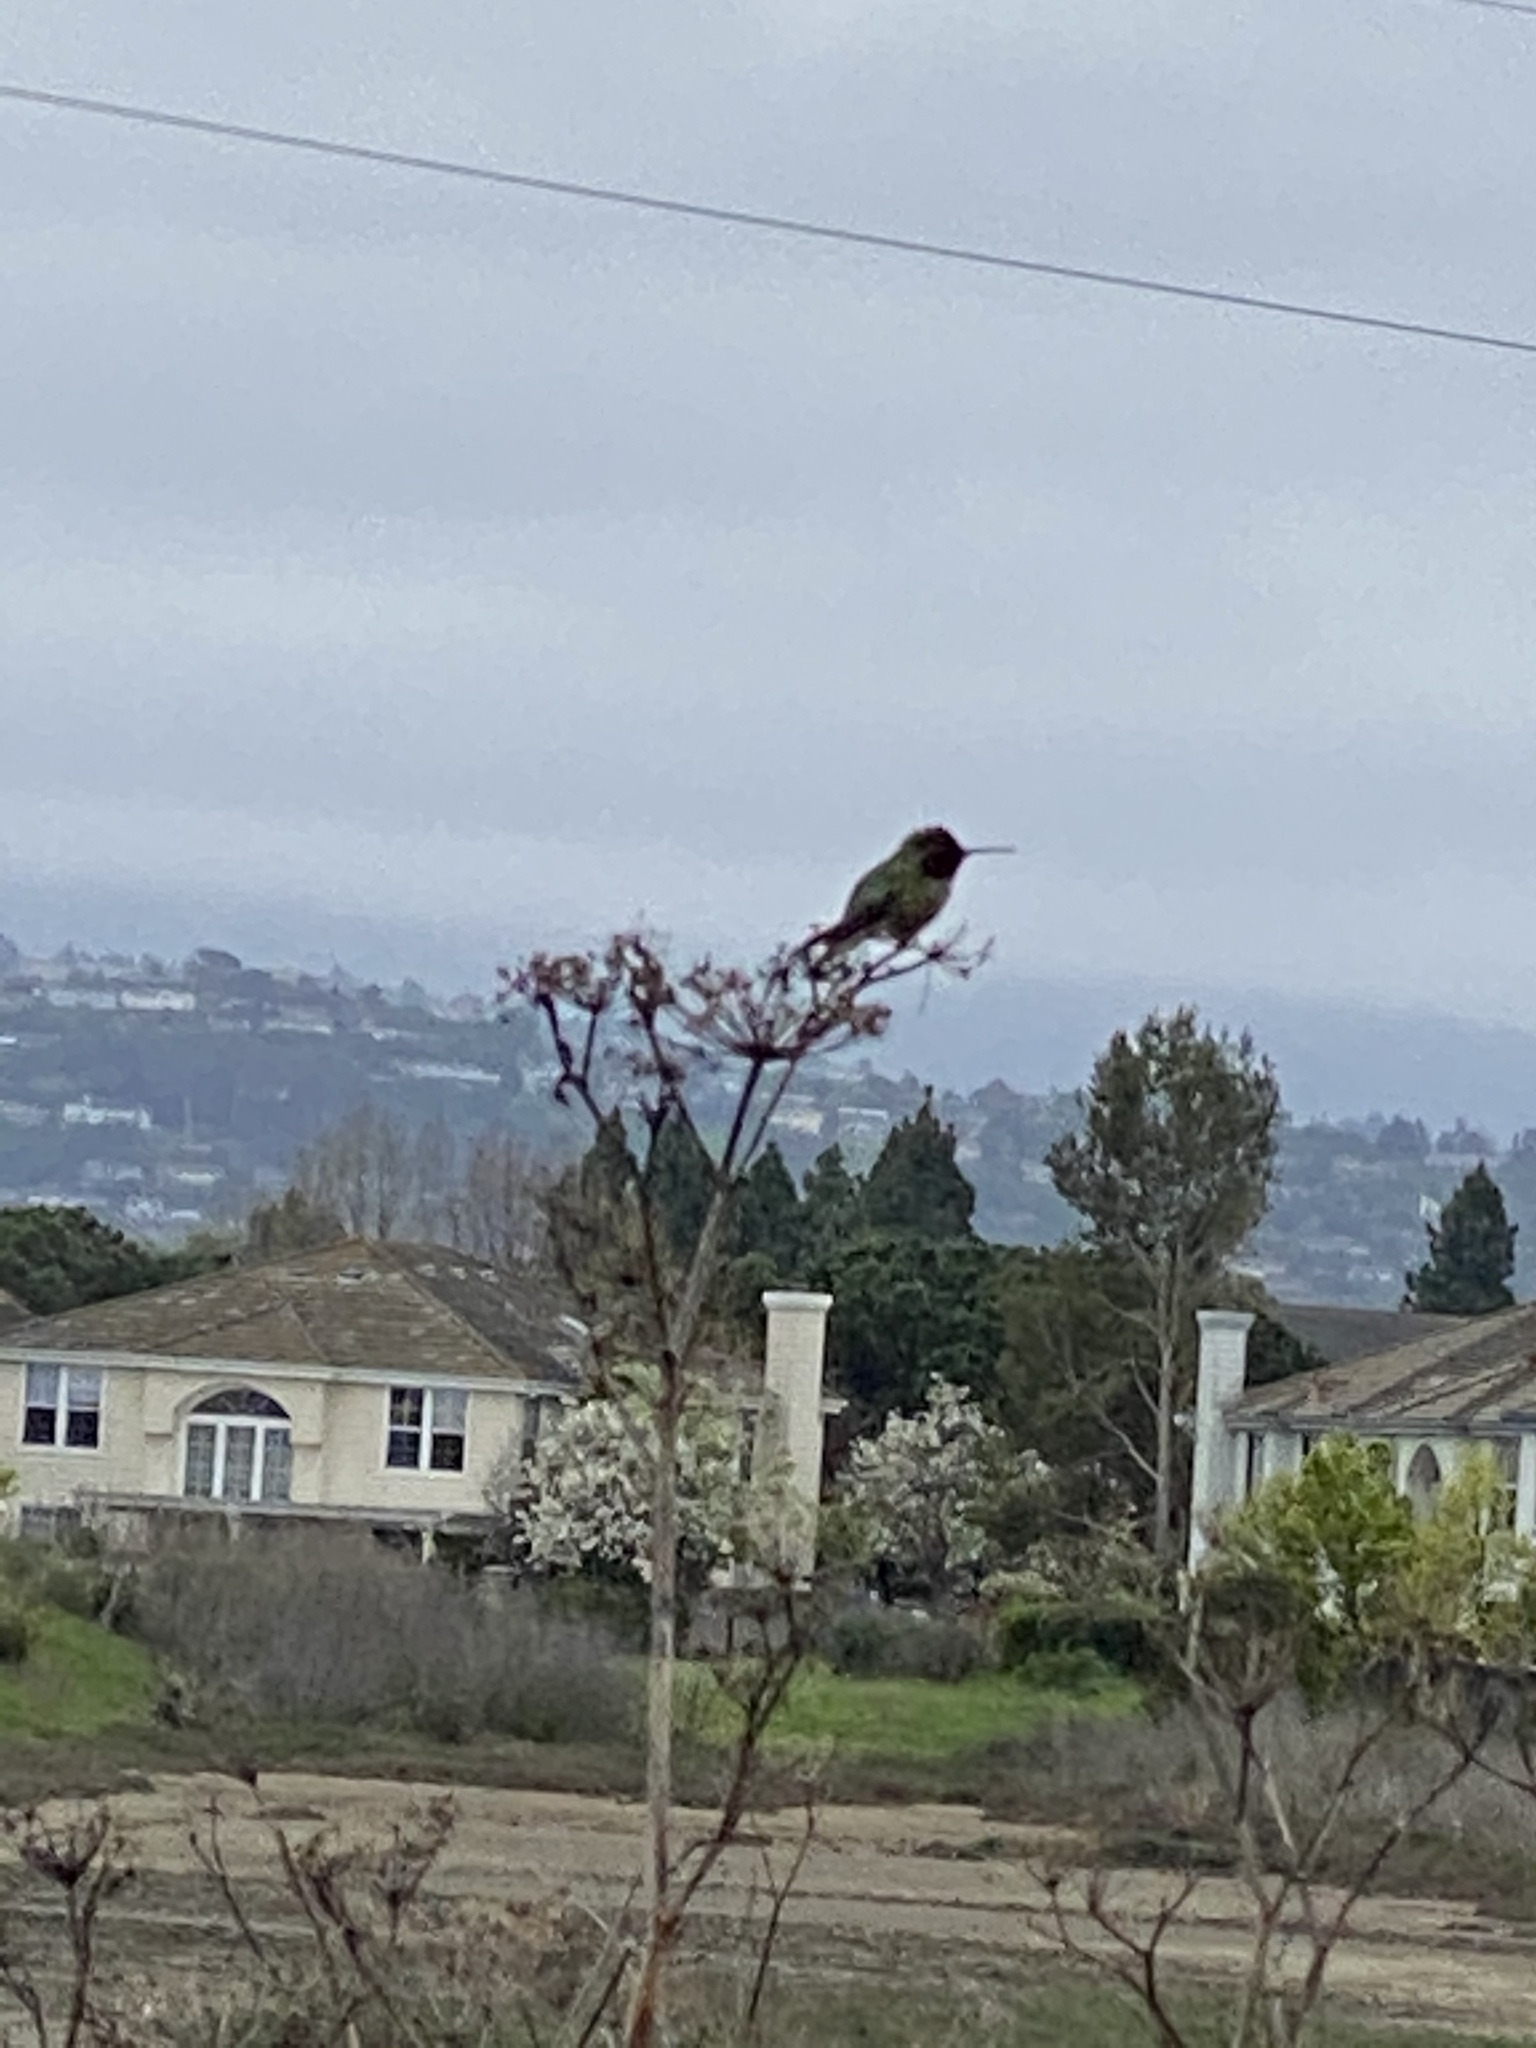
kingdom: Animalia
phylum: Chordata
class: Aves
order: Apodiformes
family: Trochilidae
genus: Calypte
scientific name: Calypte anna
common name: Anna's hummingbird
